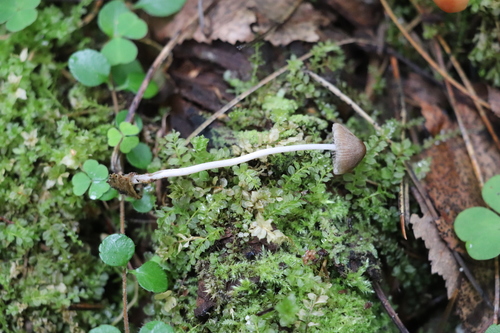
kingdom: Fungi
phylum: Basidiomycota
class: Agaricomycetes
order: Agaricales
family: Psathyrellaceae
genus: Psathyrella
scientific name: Psathyrella
